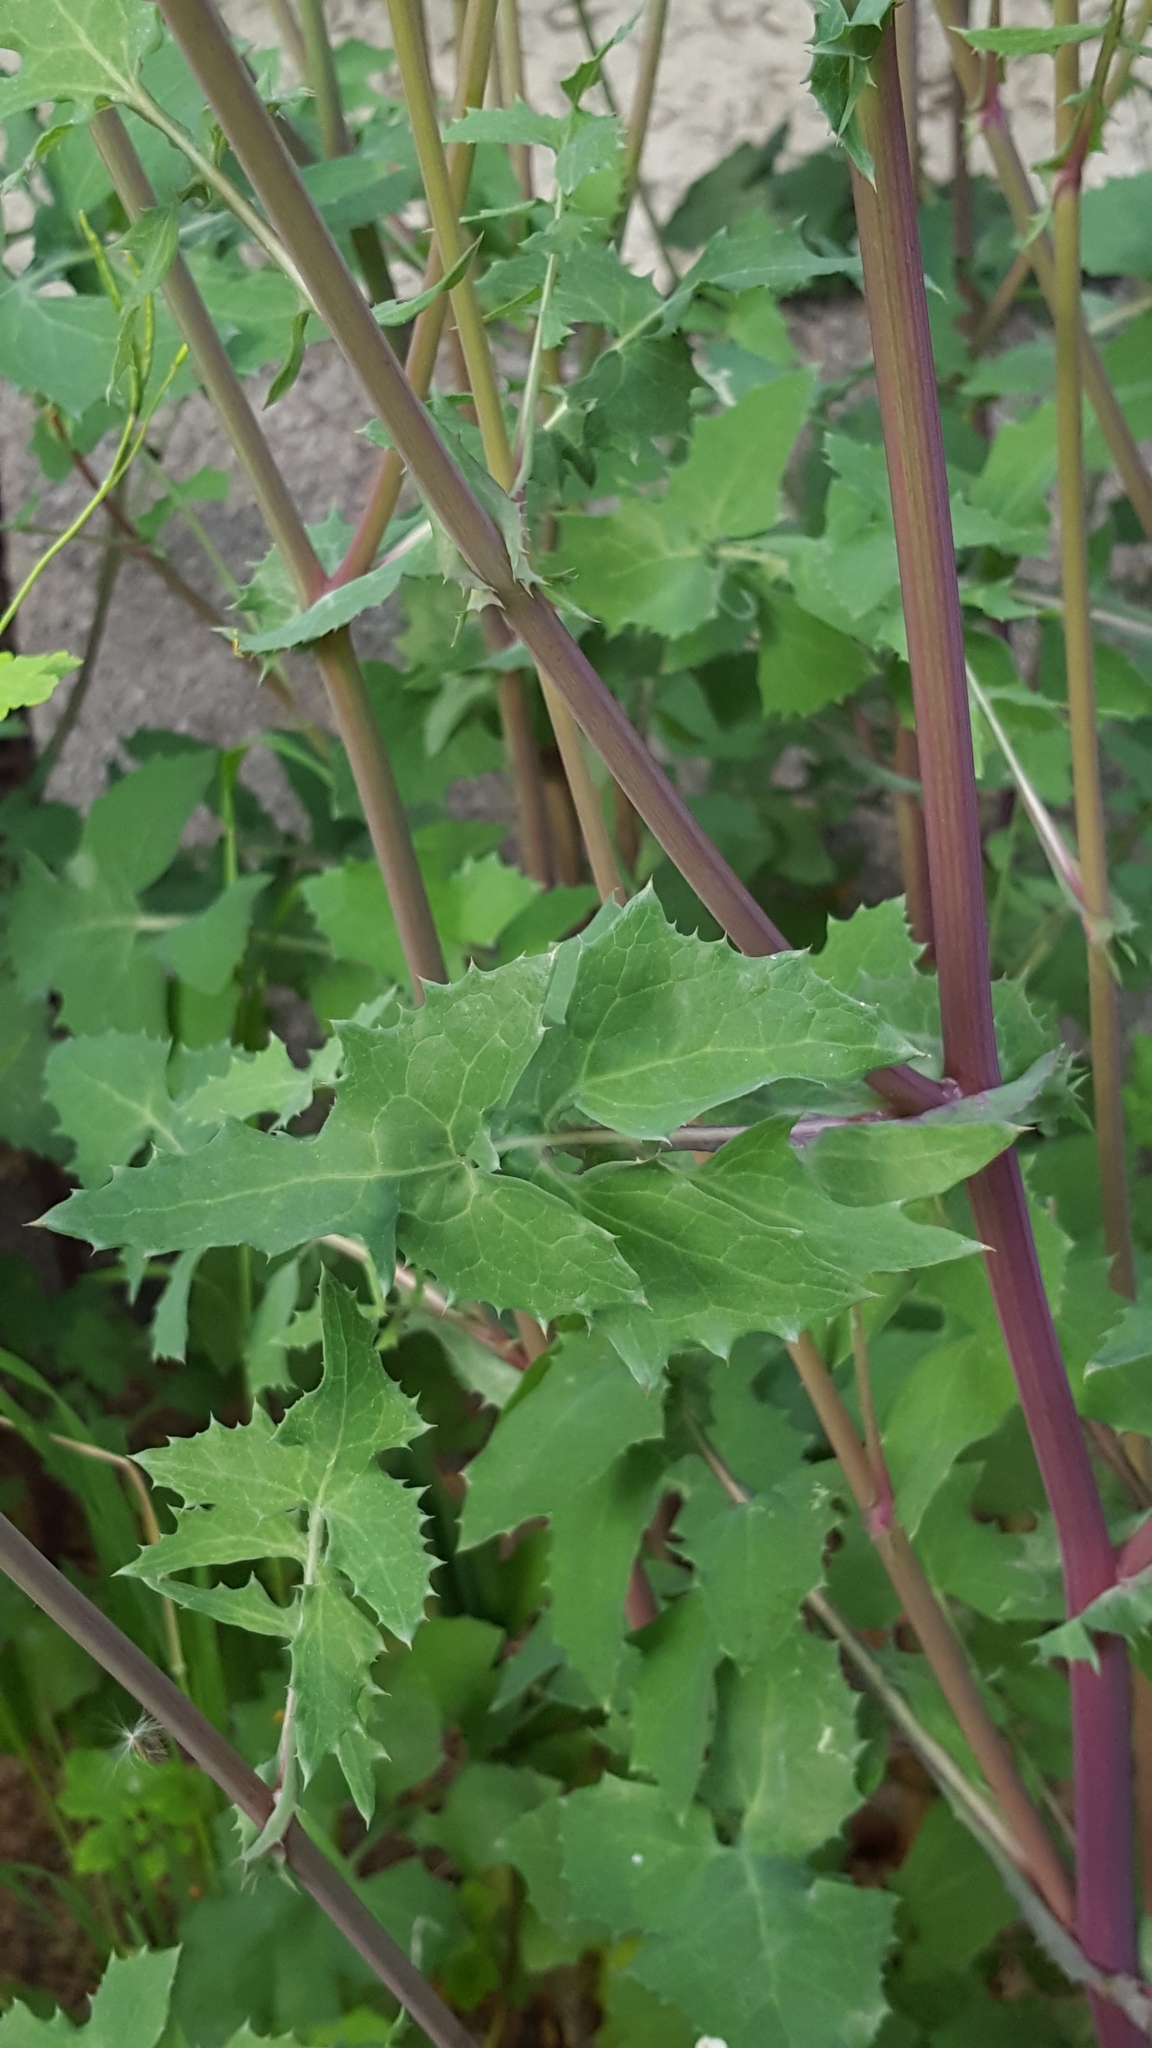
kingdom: Plantae
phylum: Tracheophyta
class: Magnoliopsida
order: Asterales
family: Asteraceae
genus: Sonchus
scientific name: Sonchus oleraceus
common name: Common sowthistle
